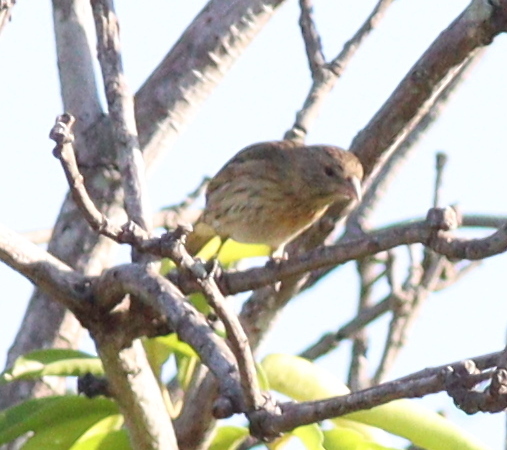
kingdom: Animalia
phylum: Chordata
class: Aves
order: Passeriformes
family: Thraupidae
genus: Sicalis
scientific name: Sicalis flaveola
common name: Saffron finch
